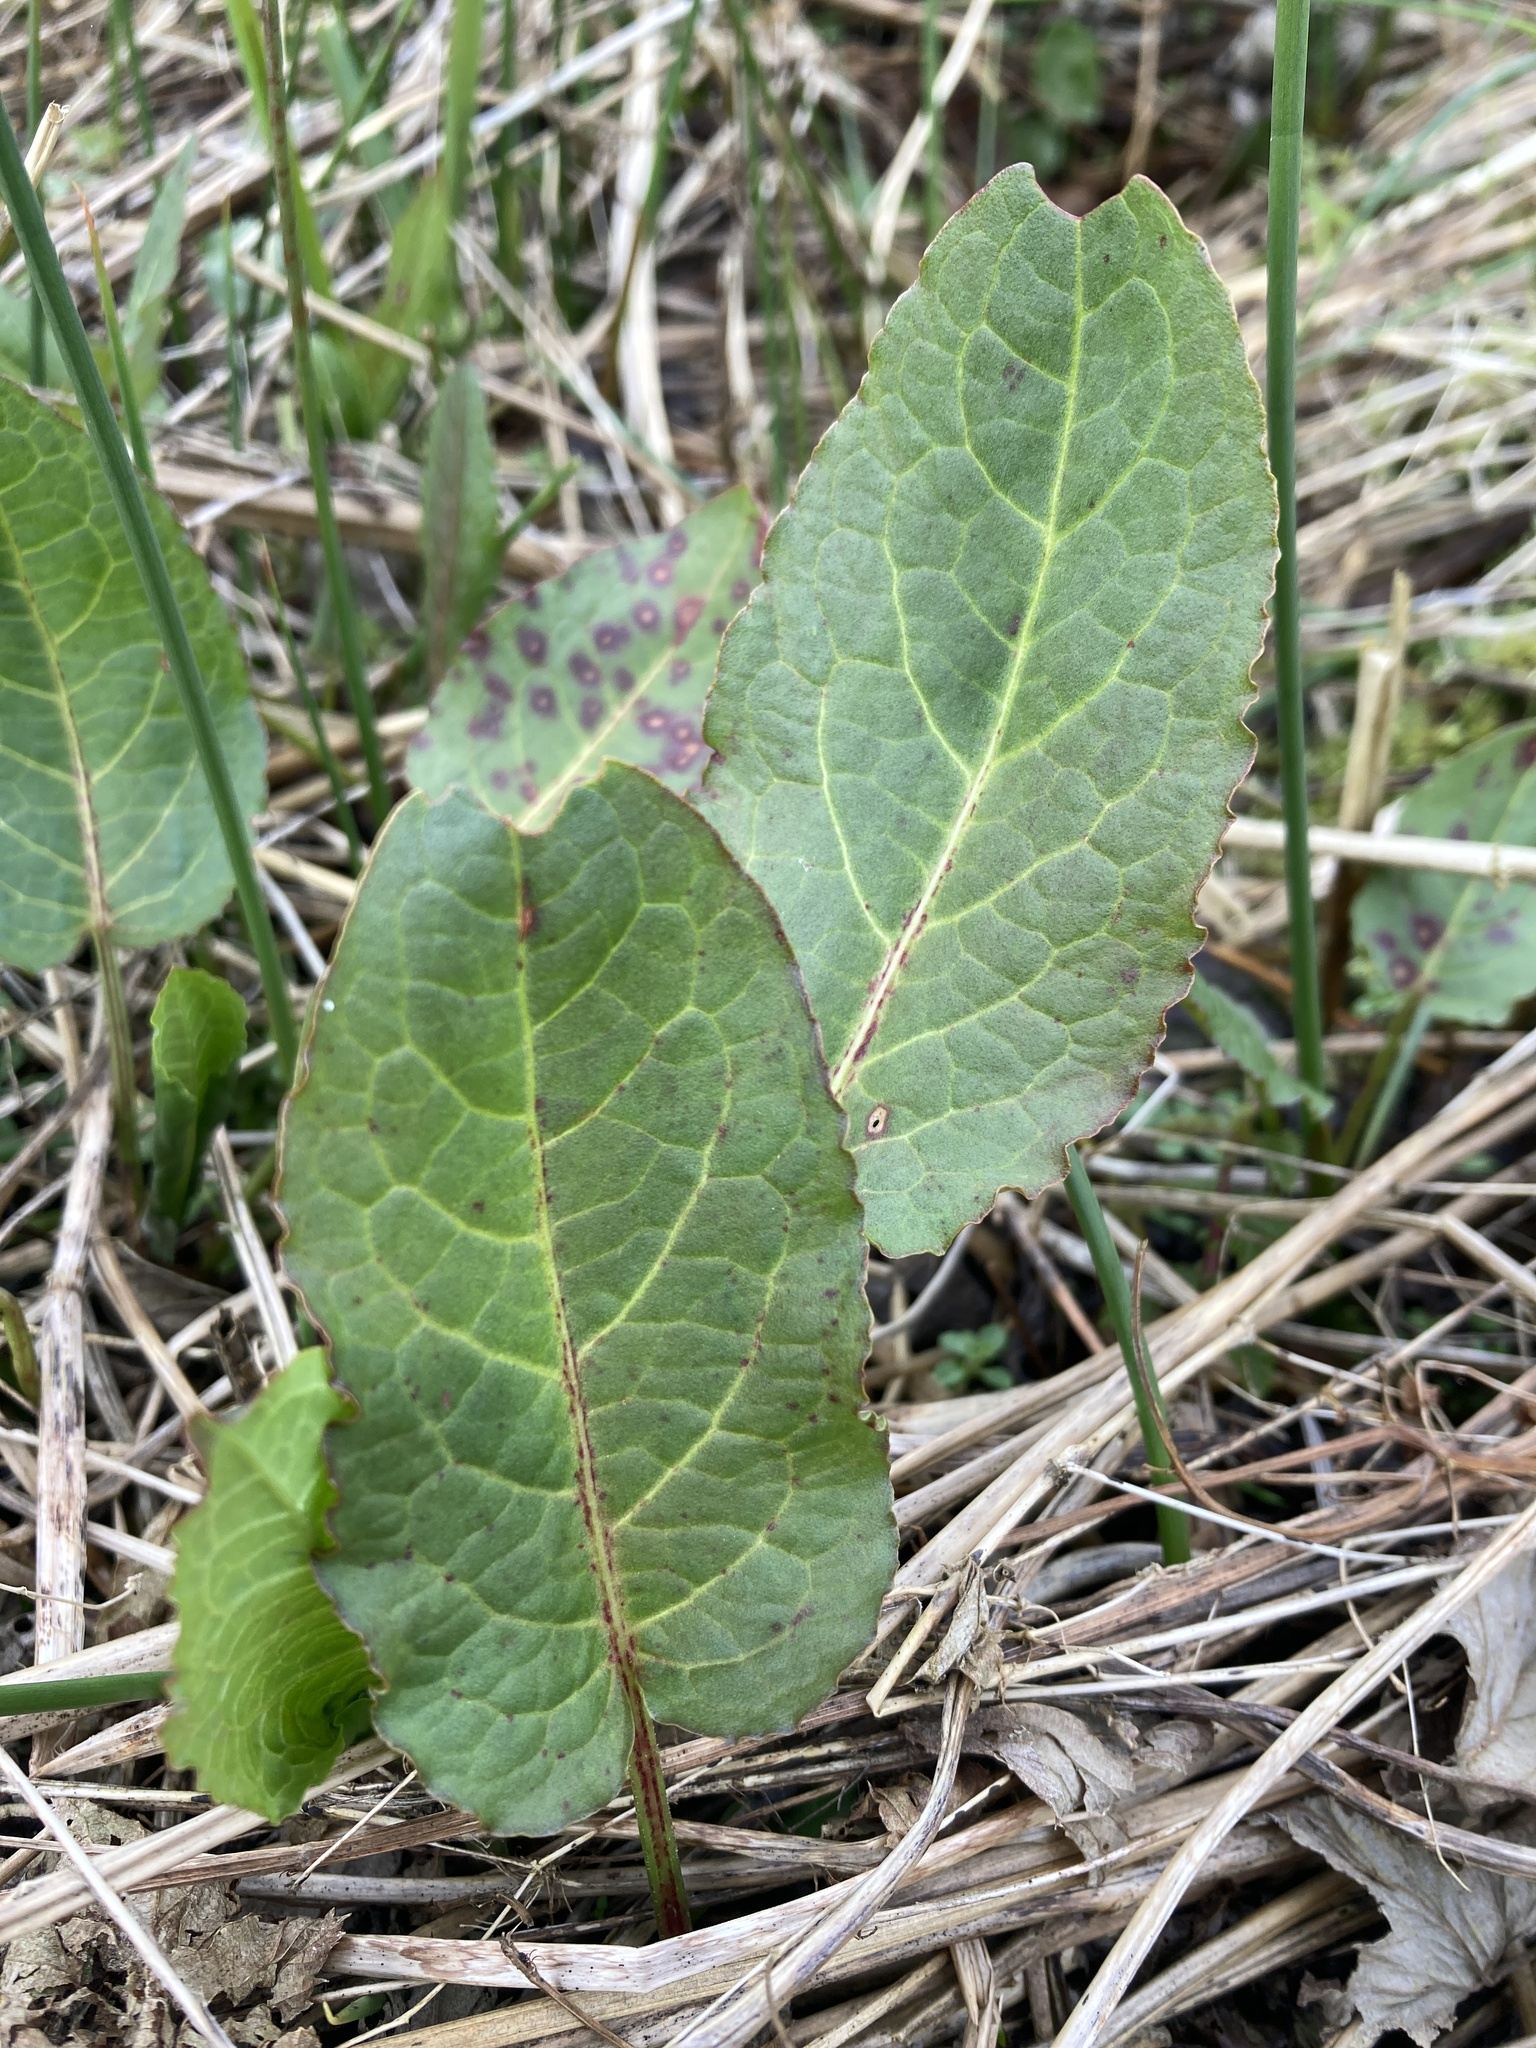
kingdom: Plantae
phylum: Tracheophyta
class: Magnoliopsida
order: Caryophyllales
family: Polygonaceae
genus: Rumex
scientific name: Rumex obtusifolius
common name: Bitter dock
